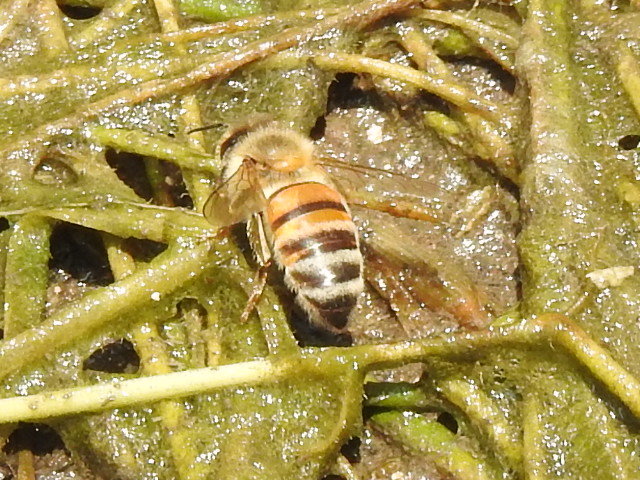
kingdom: Animalia
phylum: Arthropoda
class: Insecta
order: Hymenoptera
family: Apidae
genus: Apis
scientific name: Apis mellifera
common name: Honey bee
